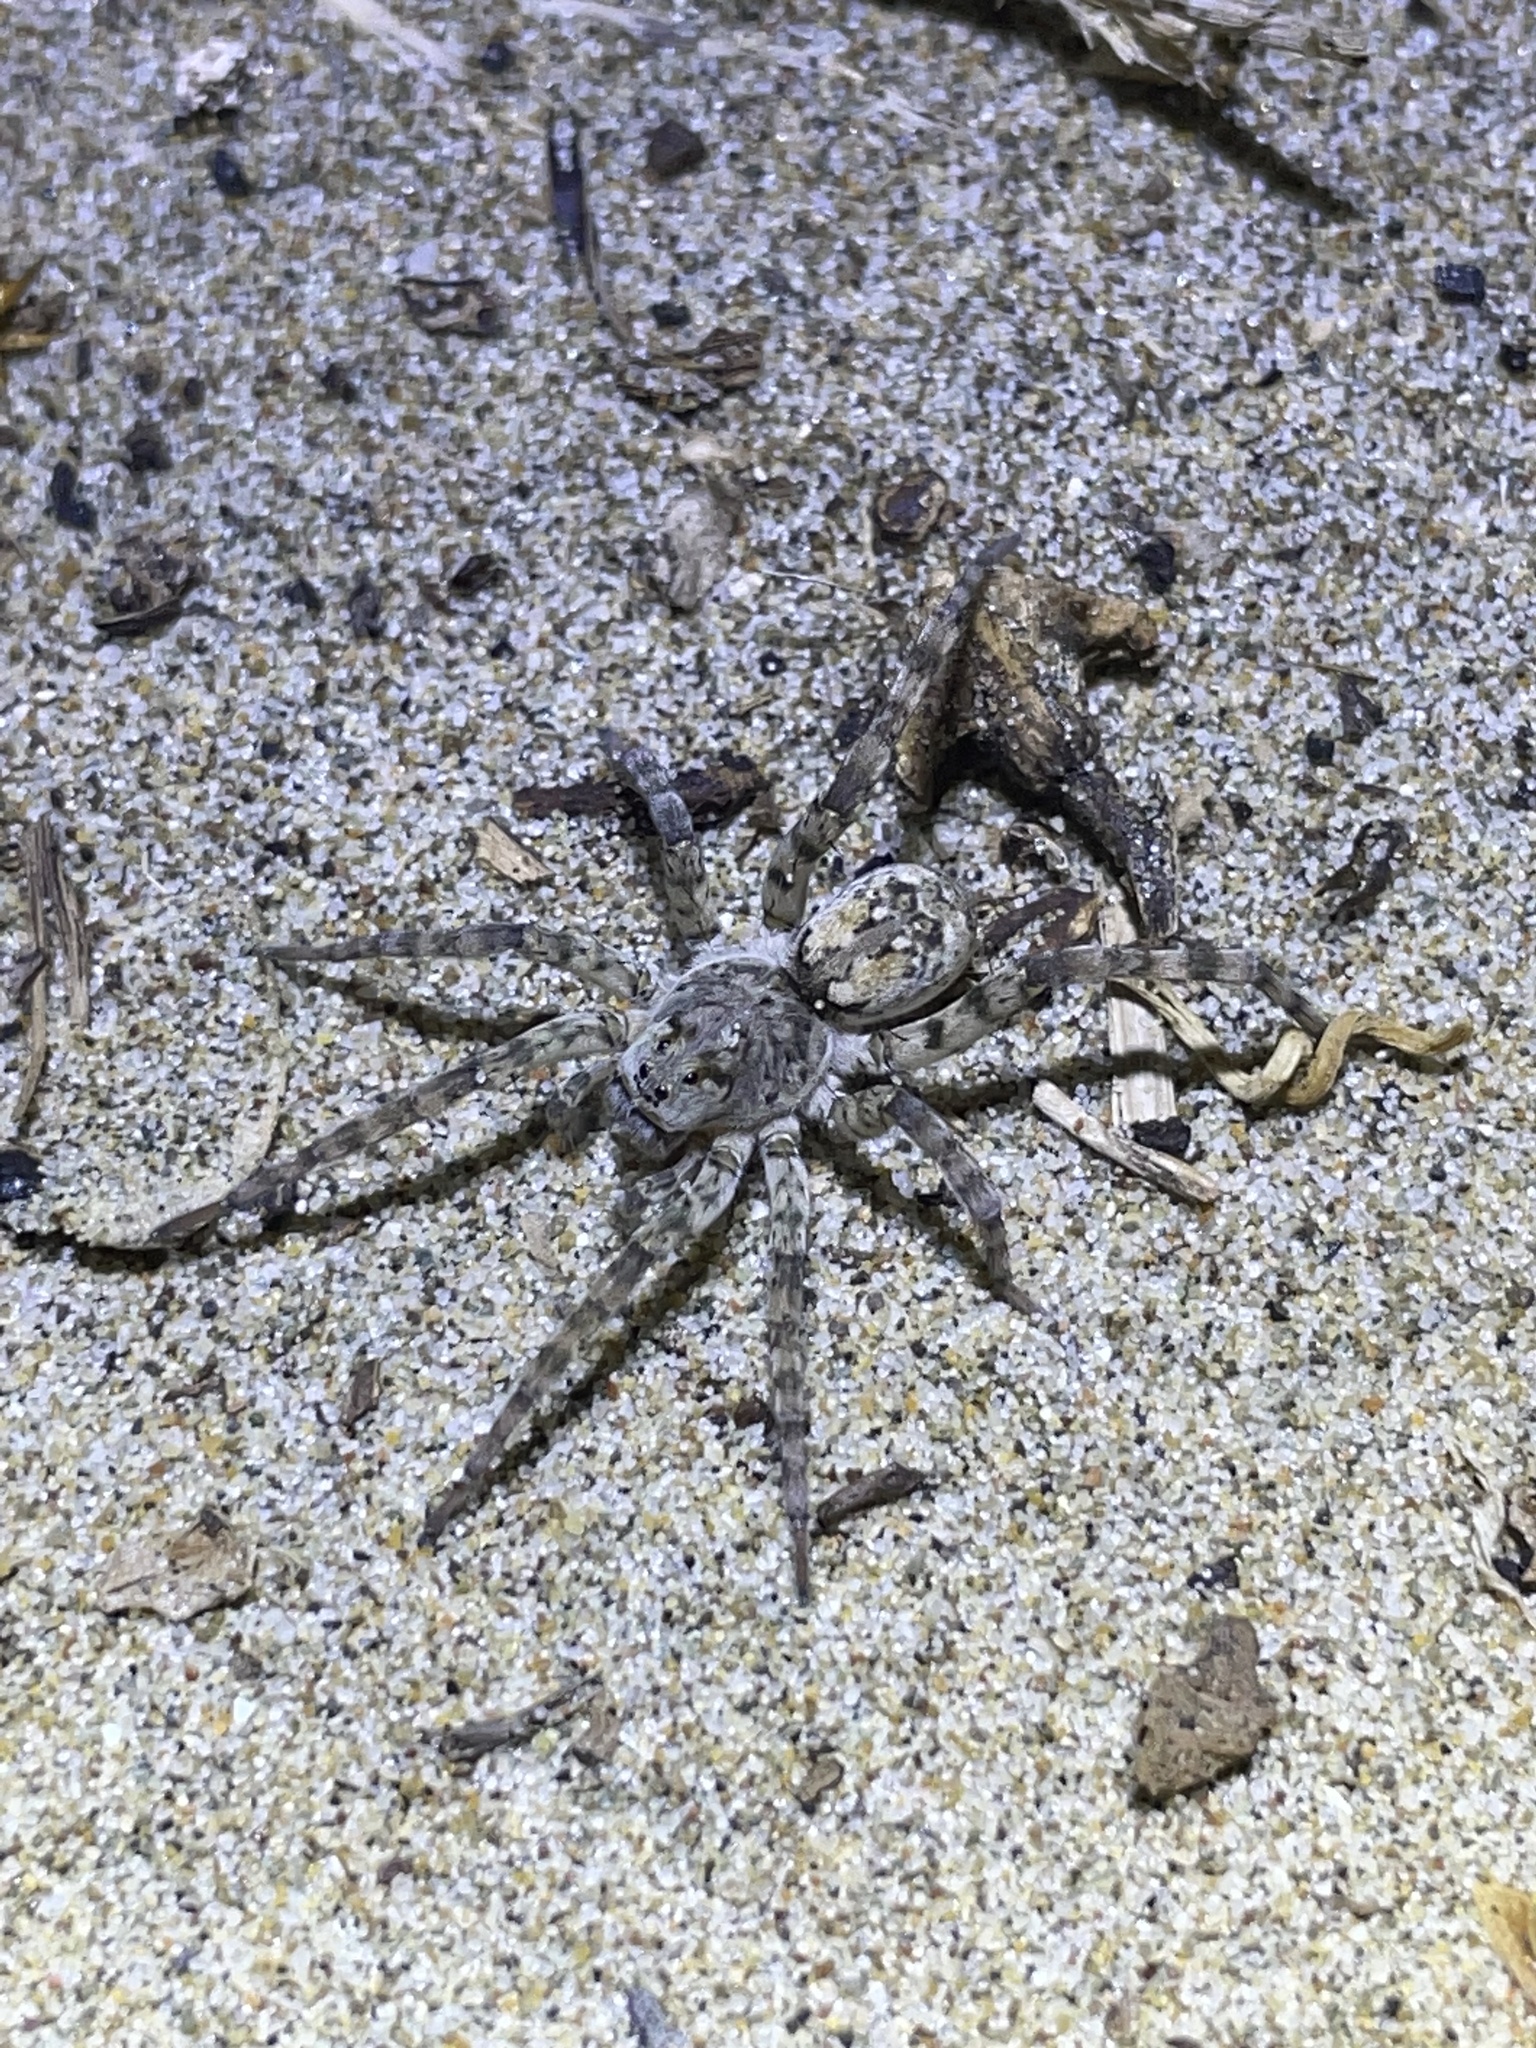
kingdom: Animalia
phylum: Arthropoda
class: Arachnida
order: Araneae
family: Lycosidae
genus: Arctosa
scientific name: Arctosa littoralis
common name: Wolf spiders
